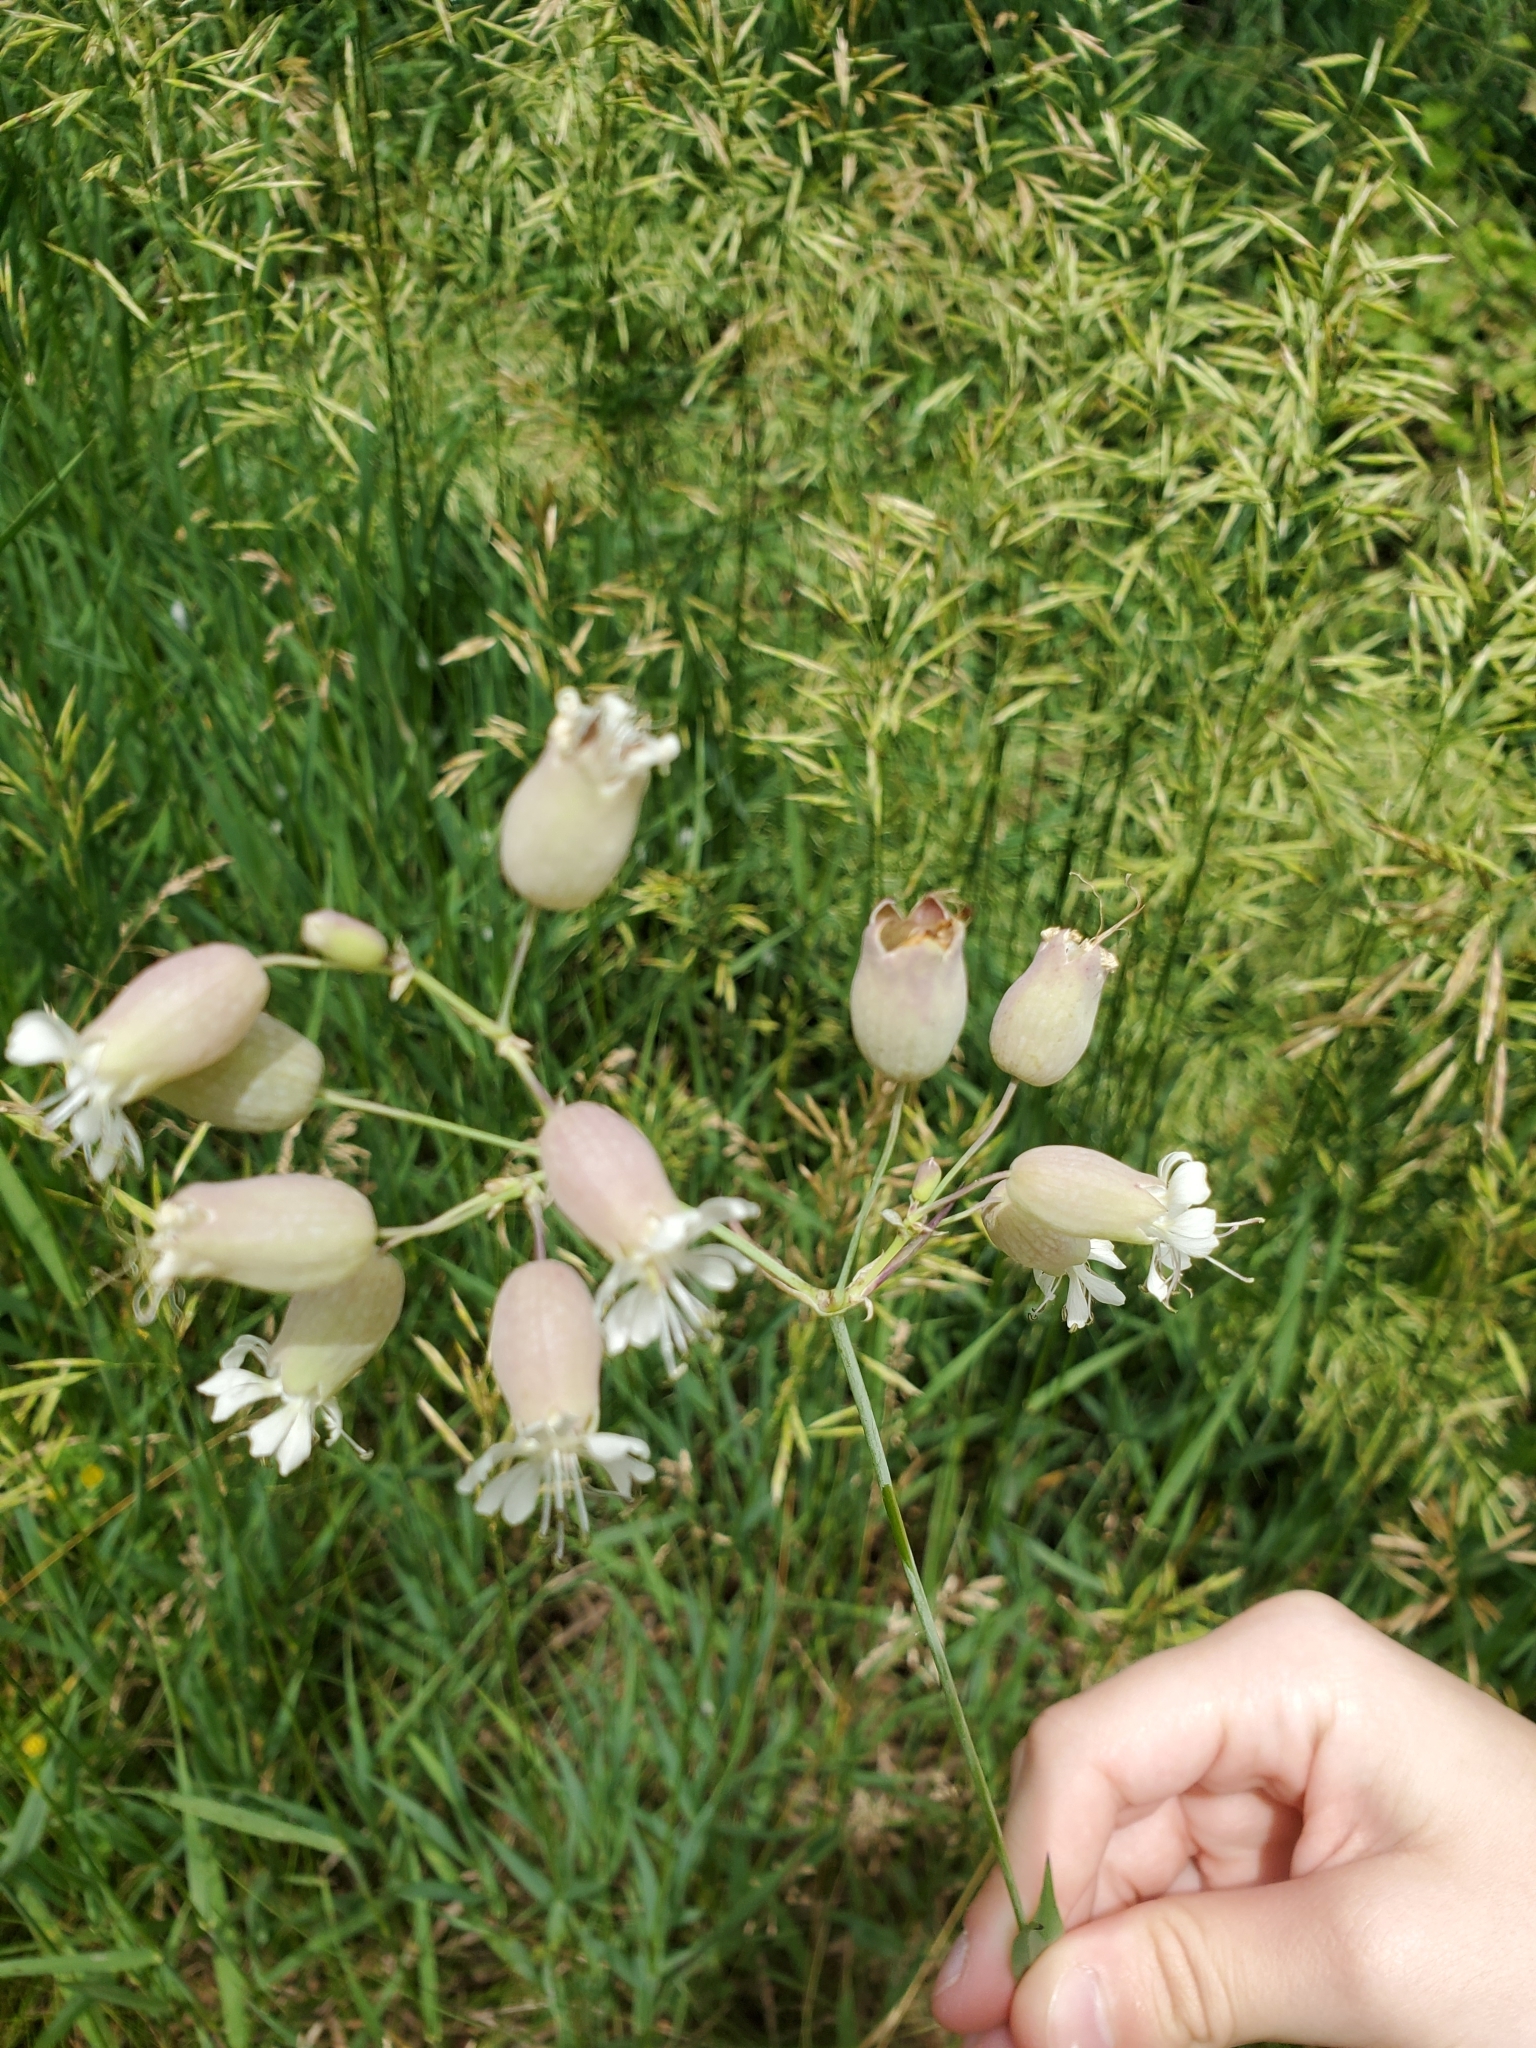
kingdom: Plantae
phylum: Tracheophyta
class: Magnoliopsida
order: Caryophyllales
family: Caryophyllaceae
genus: Silene
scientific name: Silene vulgaris
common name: Bladder campion
